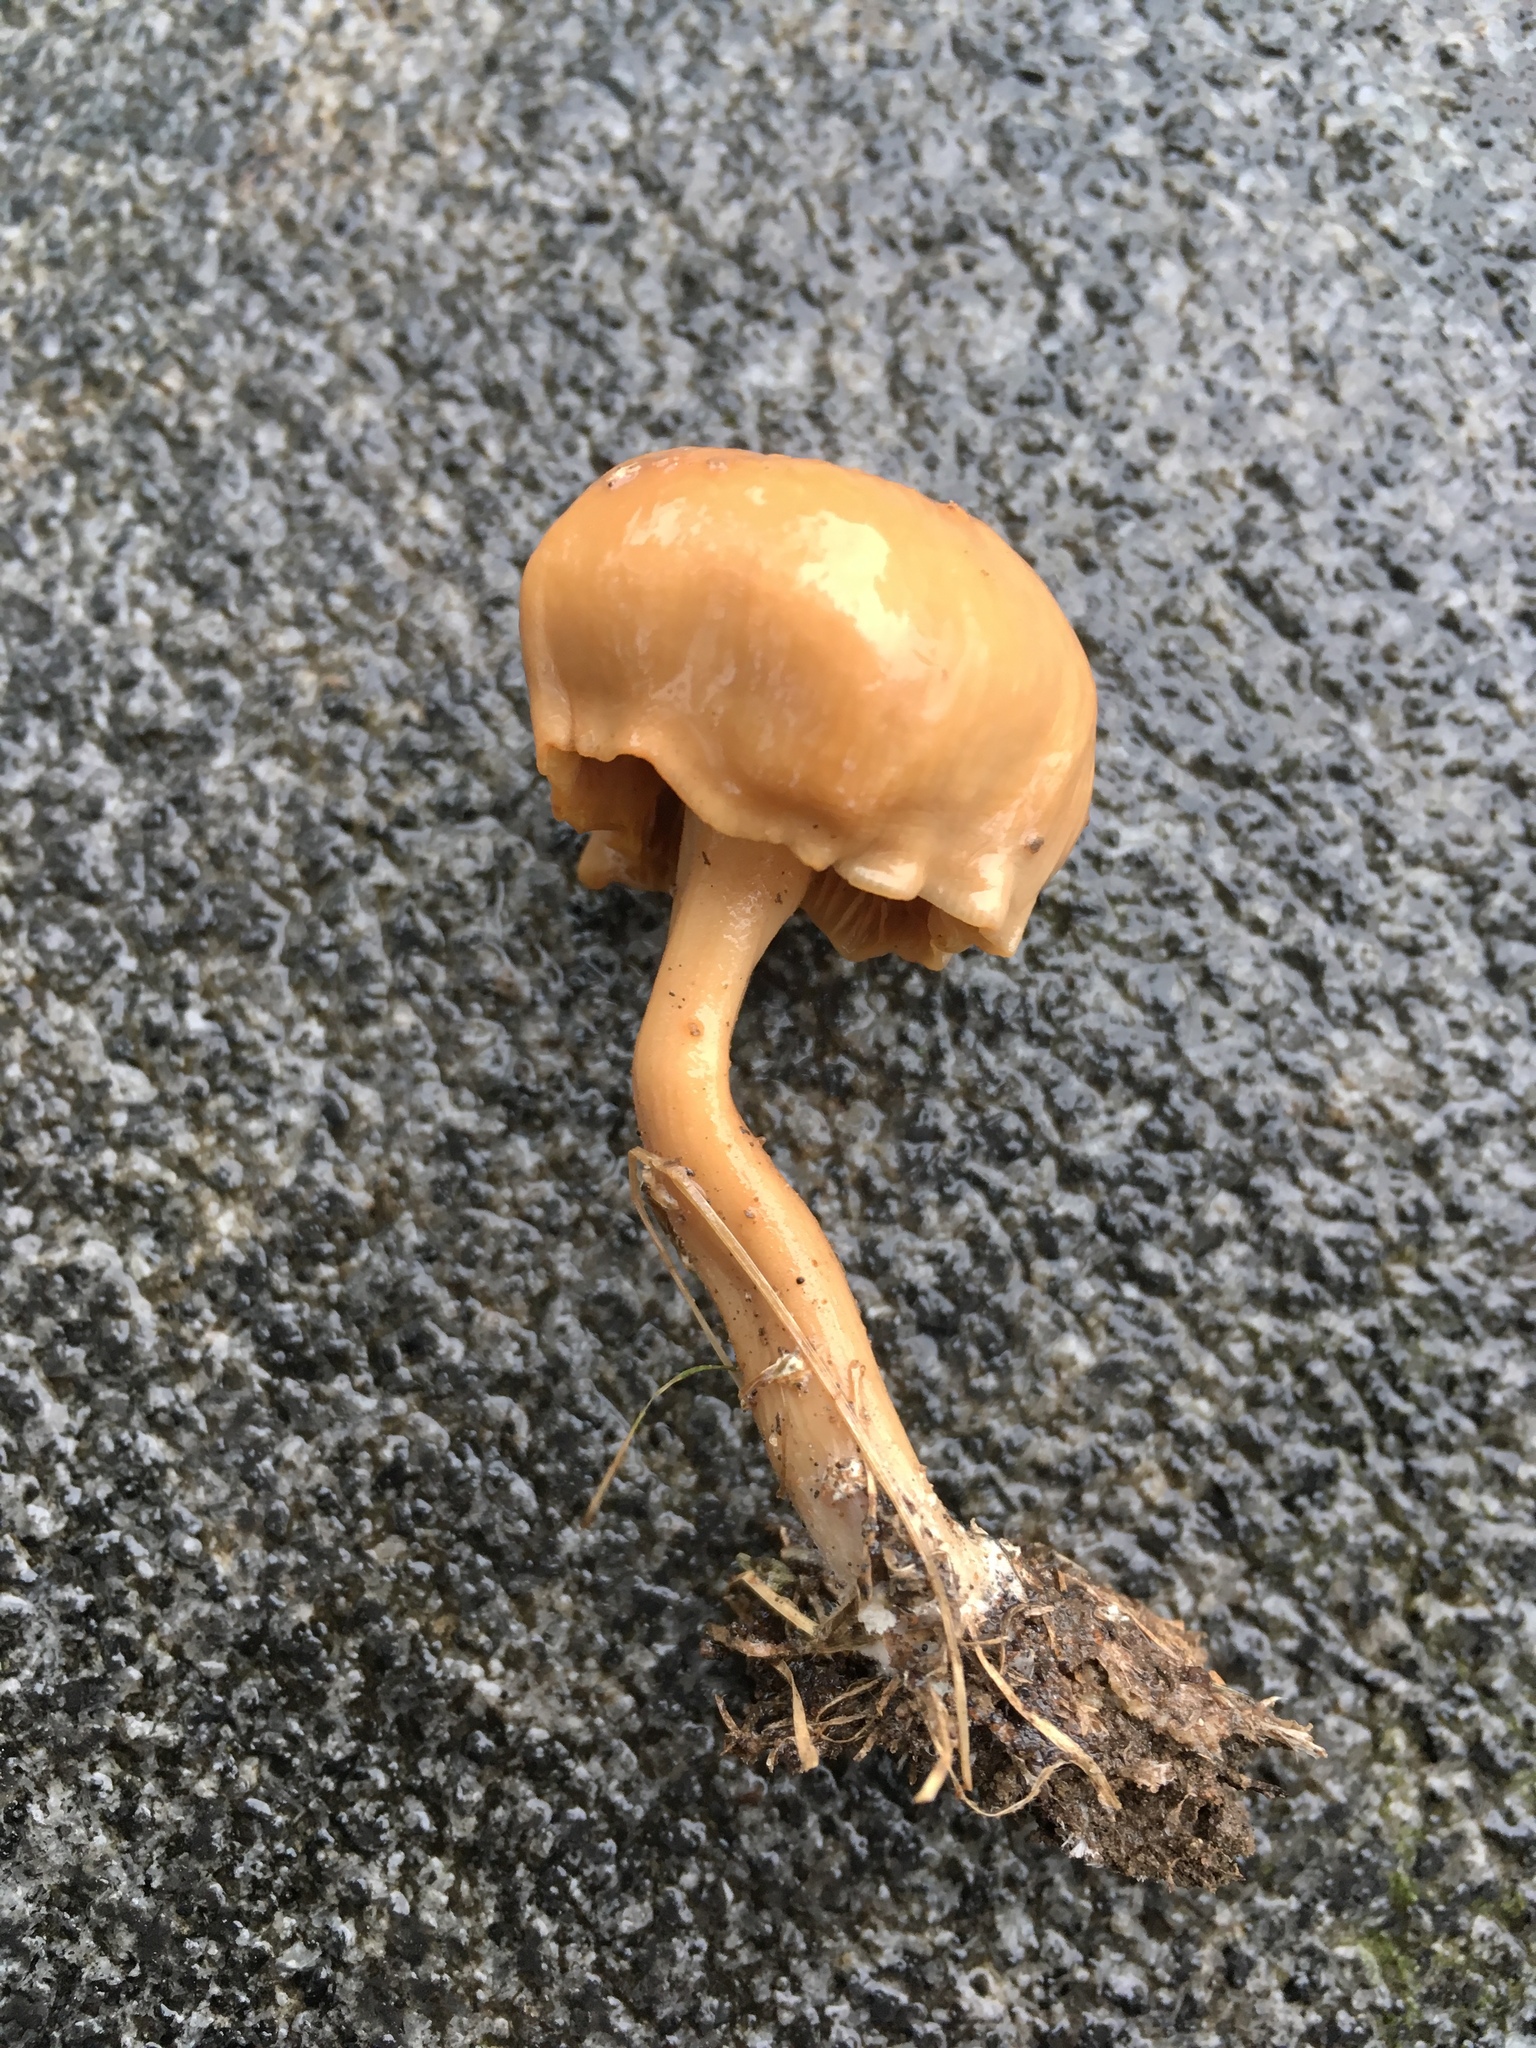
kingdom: Fungi
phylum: Basidiomycota
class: Agaricomycetes
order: Agaricales
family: Hydnangiaceae
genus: Laccaria
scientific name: Laccaria laccata
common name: Deceiver
